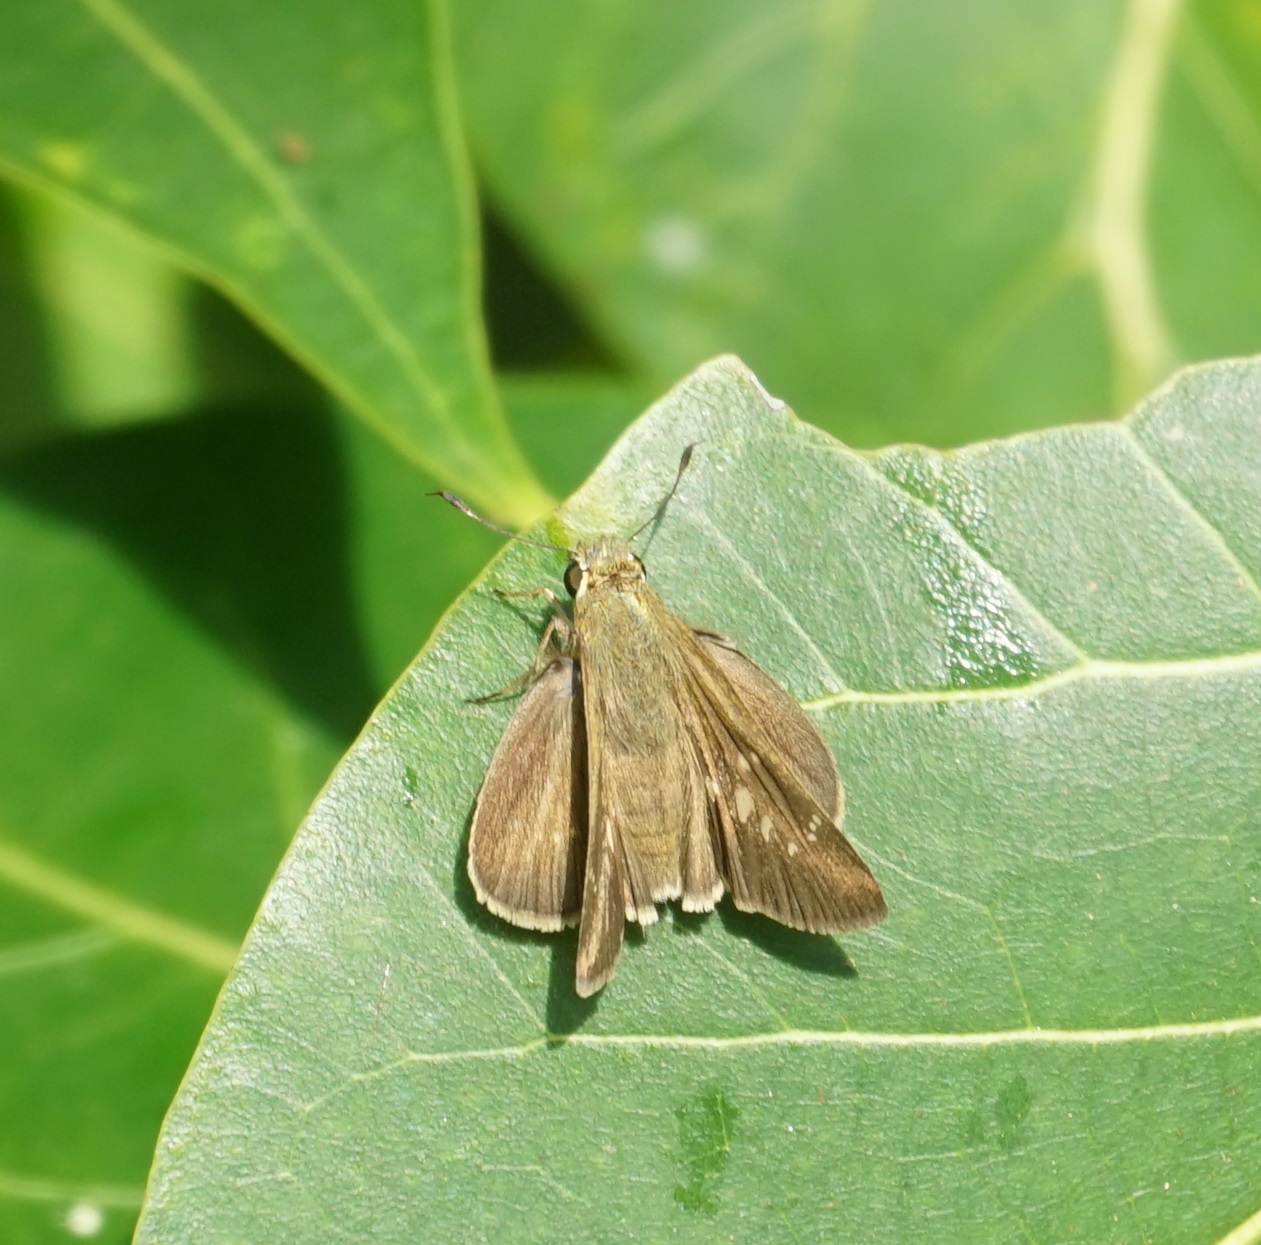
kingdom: Animalia
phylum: Arthropoda
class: Insecta
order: Lepidoptera
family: Hesperiidae
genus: Pelopidas
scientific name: Pelopidas lyelli
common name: Lyell's swift
